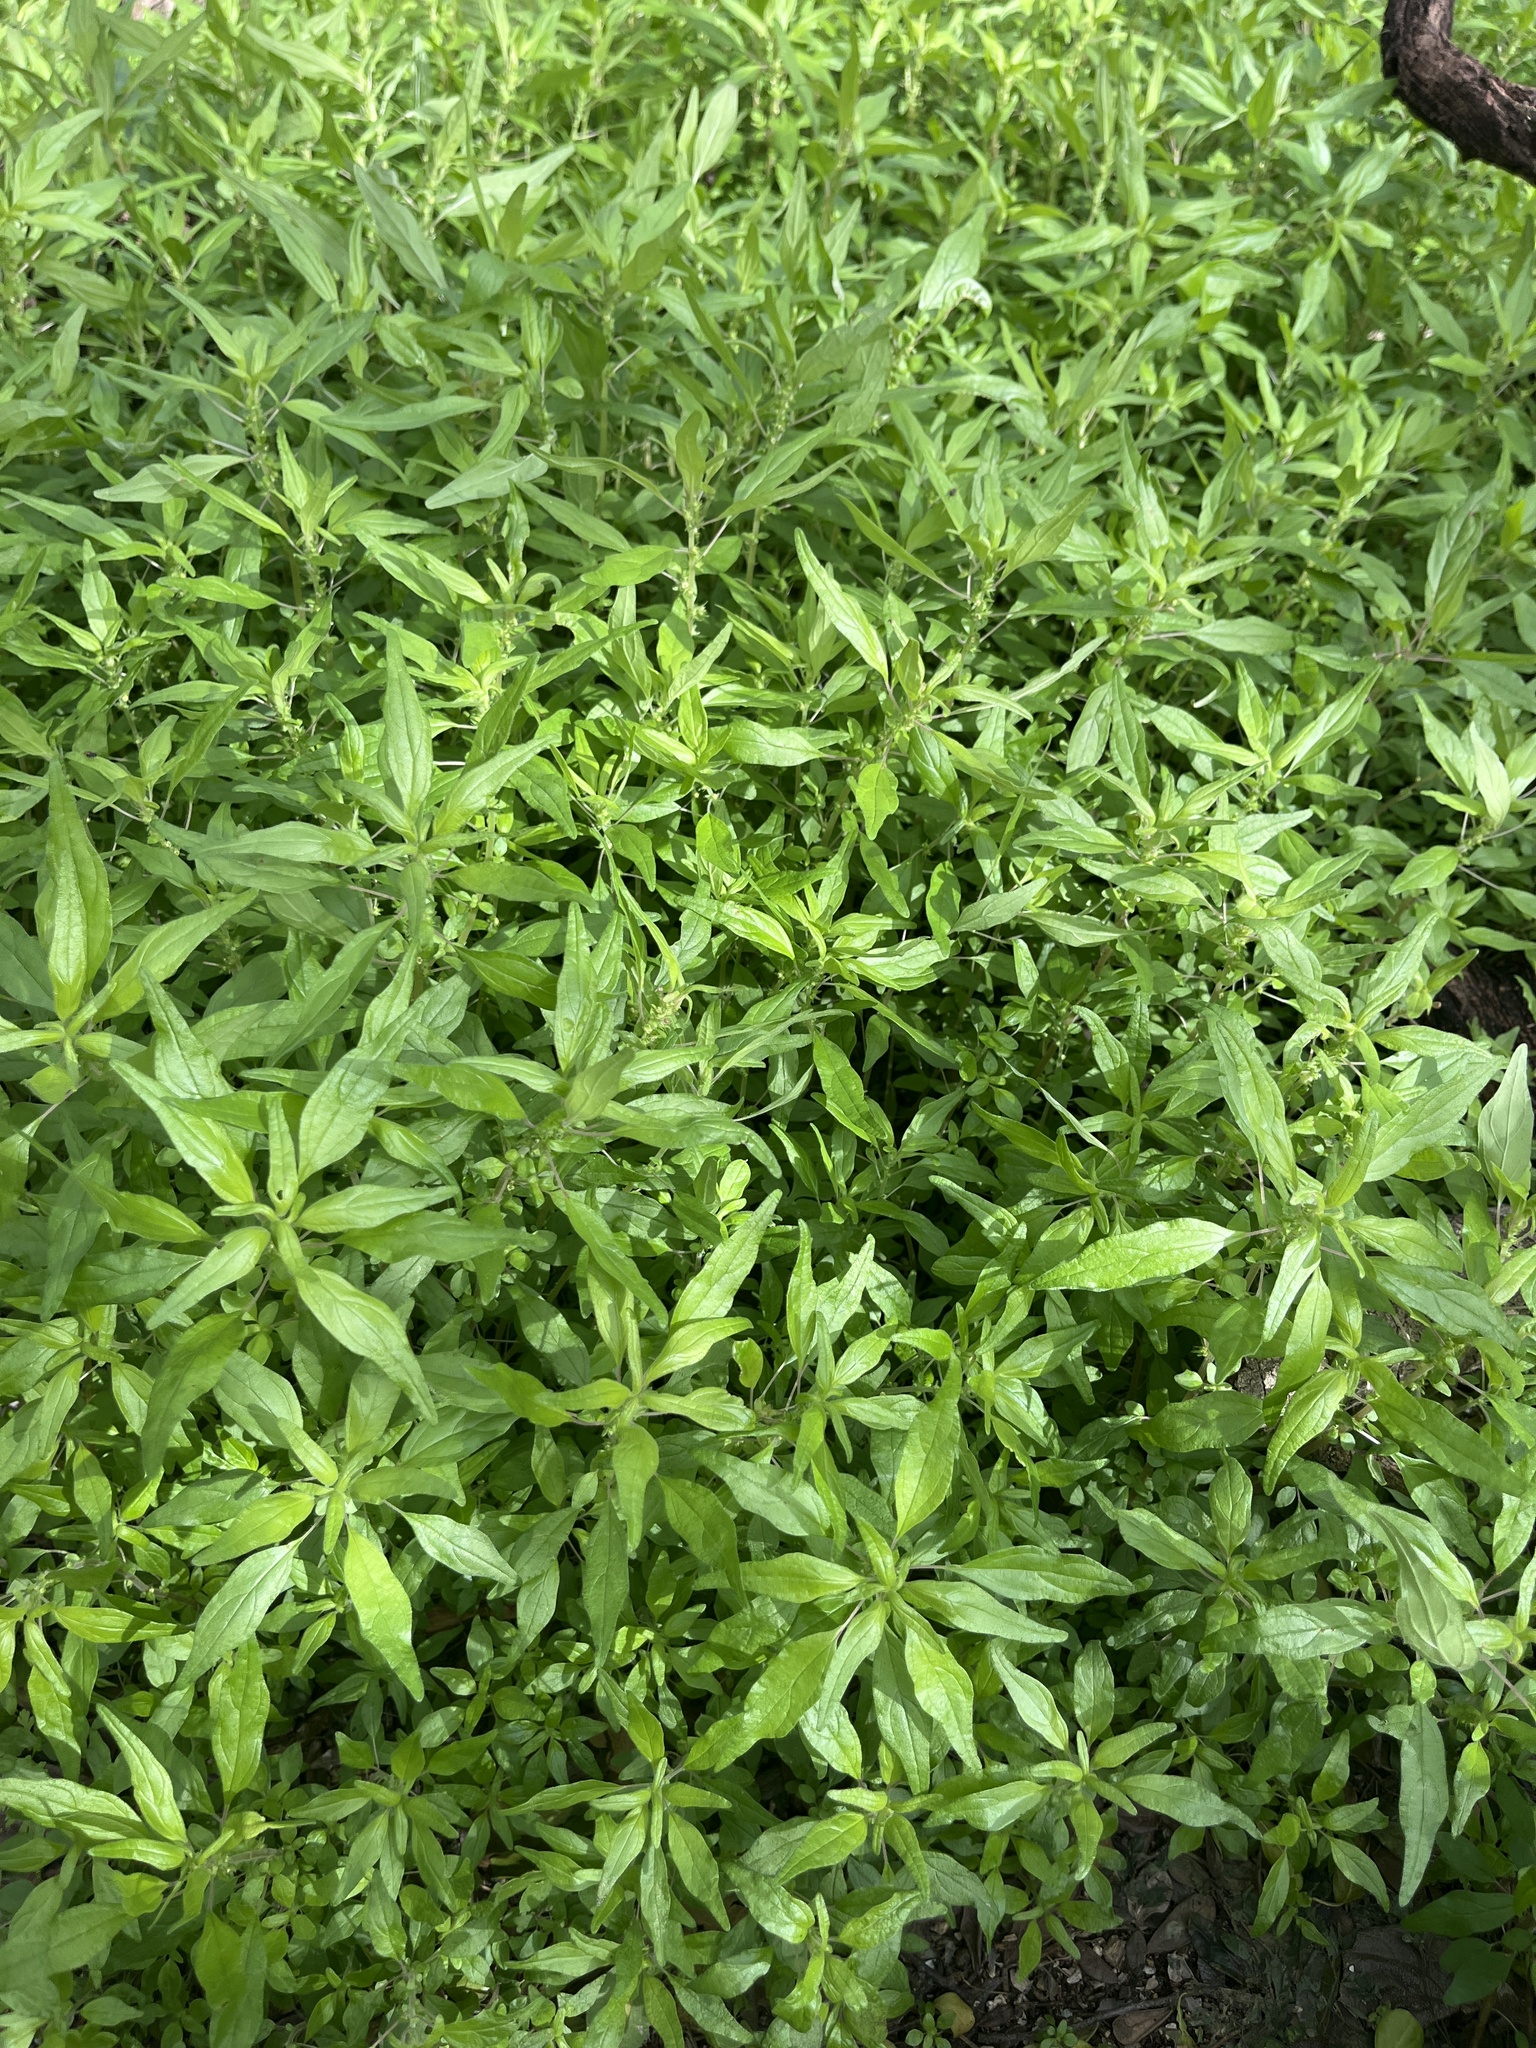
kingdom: Plantae
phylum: Tracheophyta
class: Magnoliopsida
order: Rosales
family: Urticaceae
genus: Parietaria
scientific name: Parietaria pensylvanica
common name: Pennsylvania pellitory
